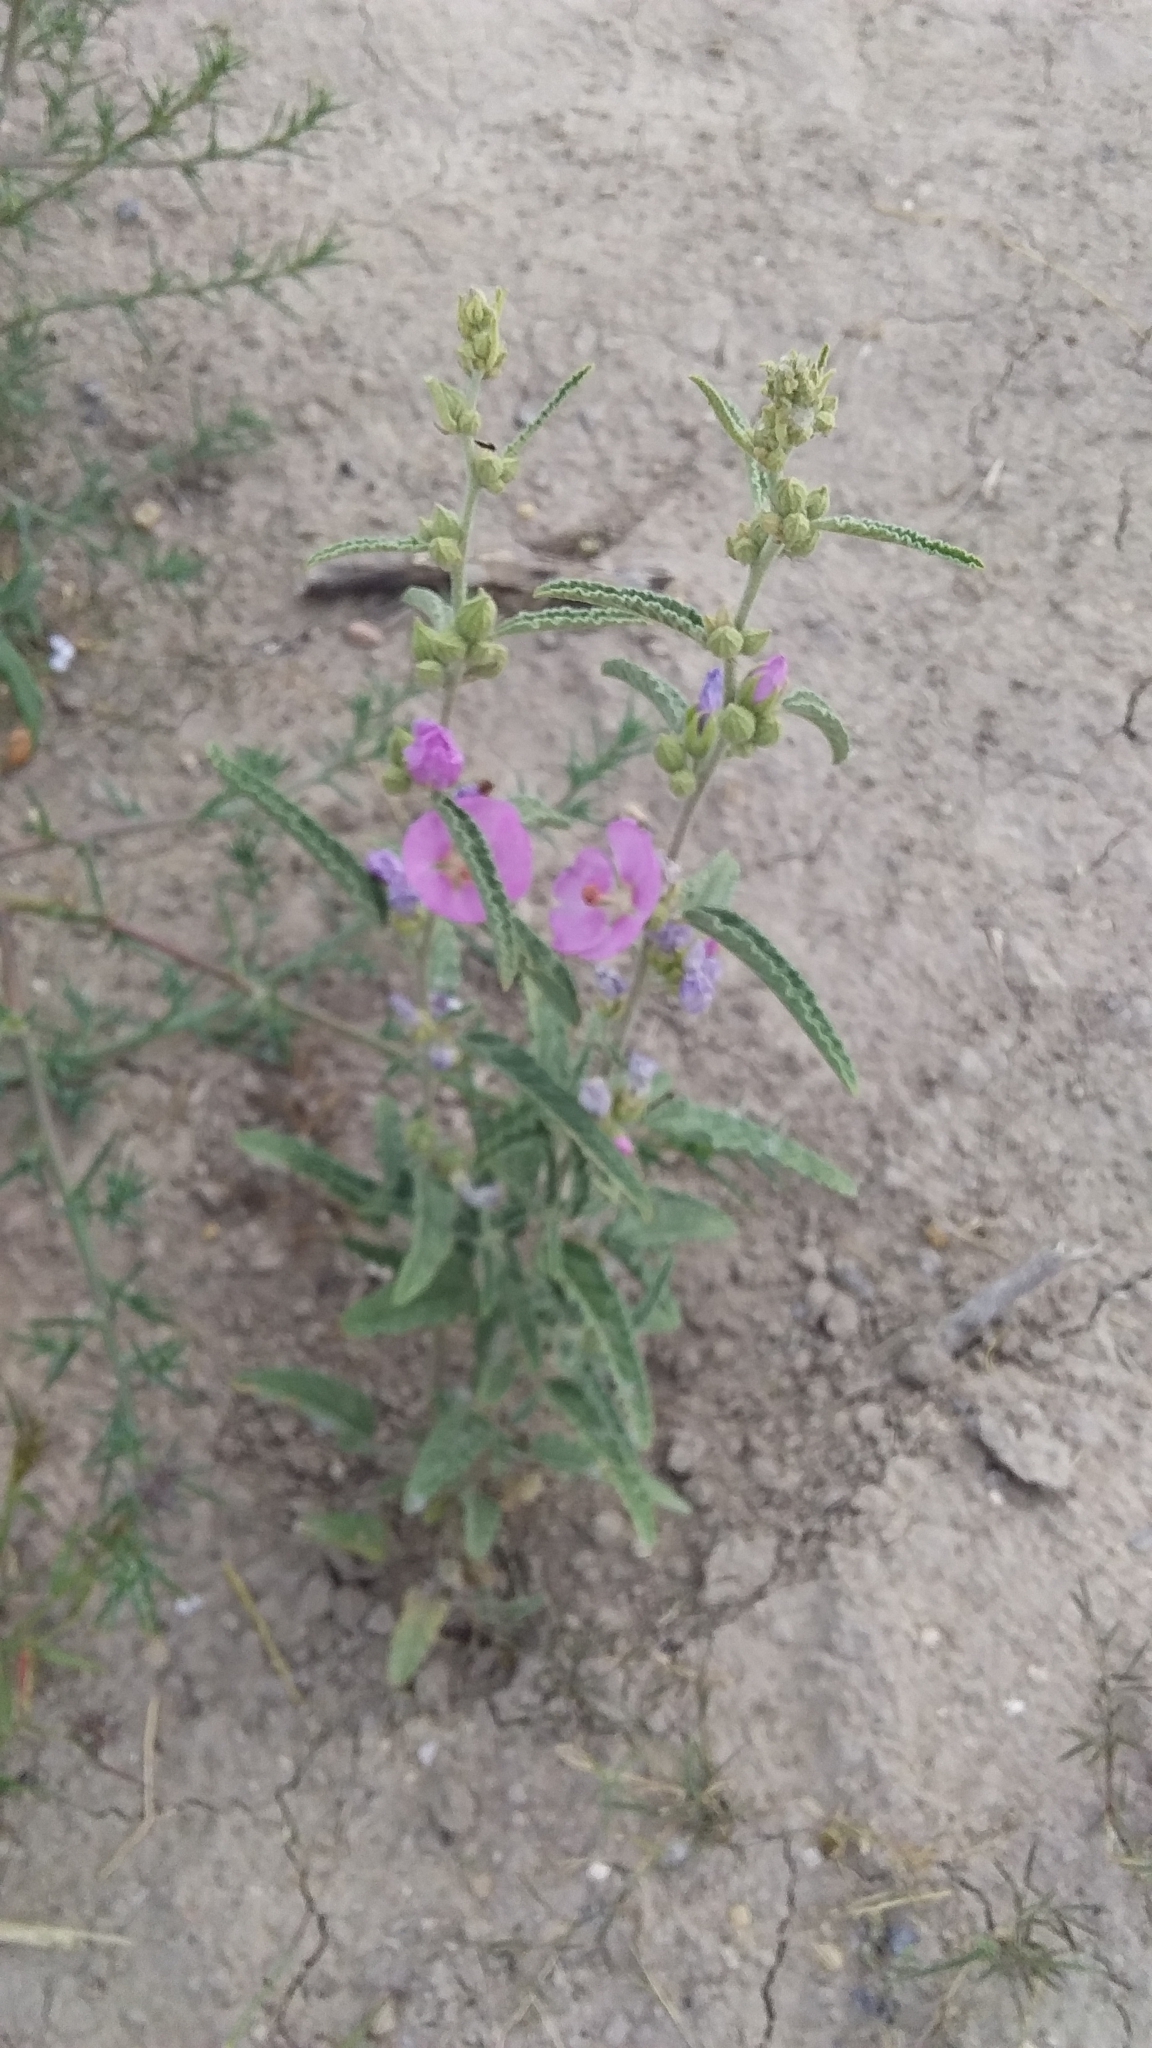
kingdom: Plantae
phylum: Tracheophyta
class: Magnoliopsida
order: Malvales
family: Malvaceae
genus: Sphaeralcea
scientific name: Sphaeralcea angustifolia
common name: Copper globe-mallow
